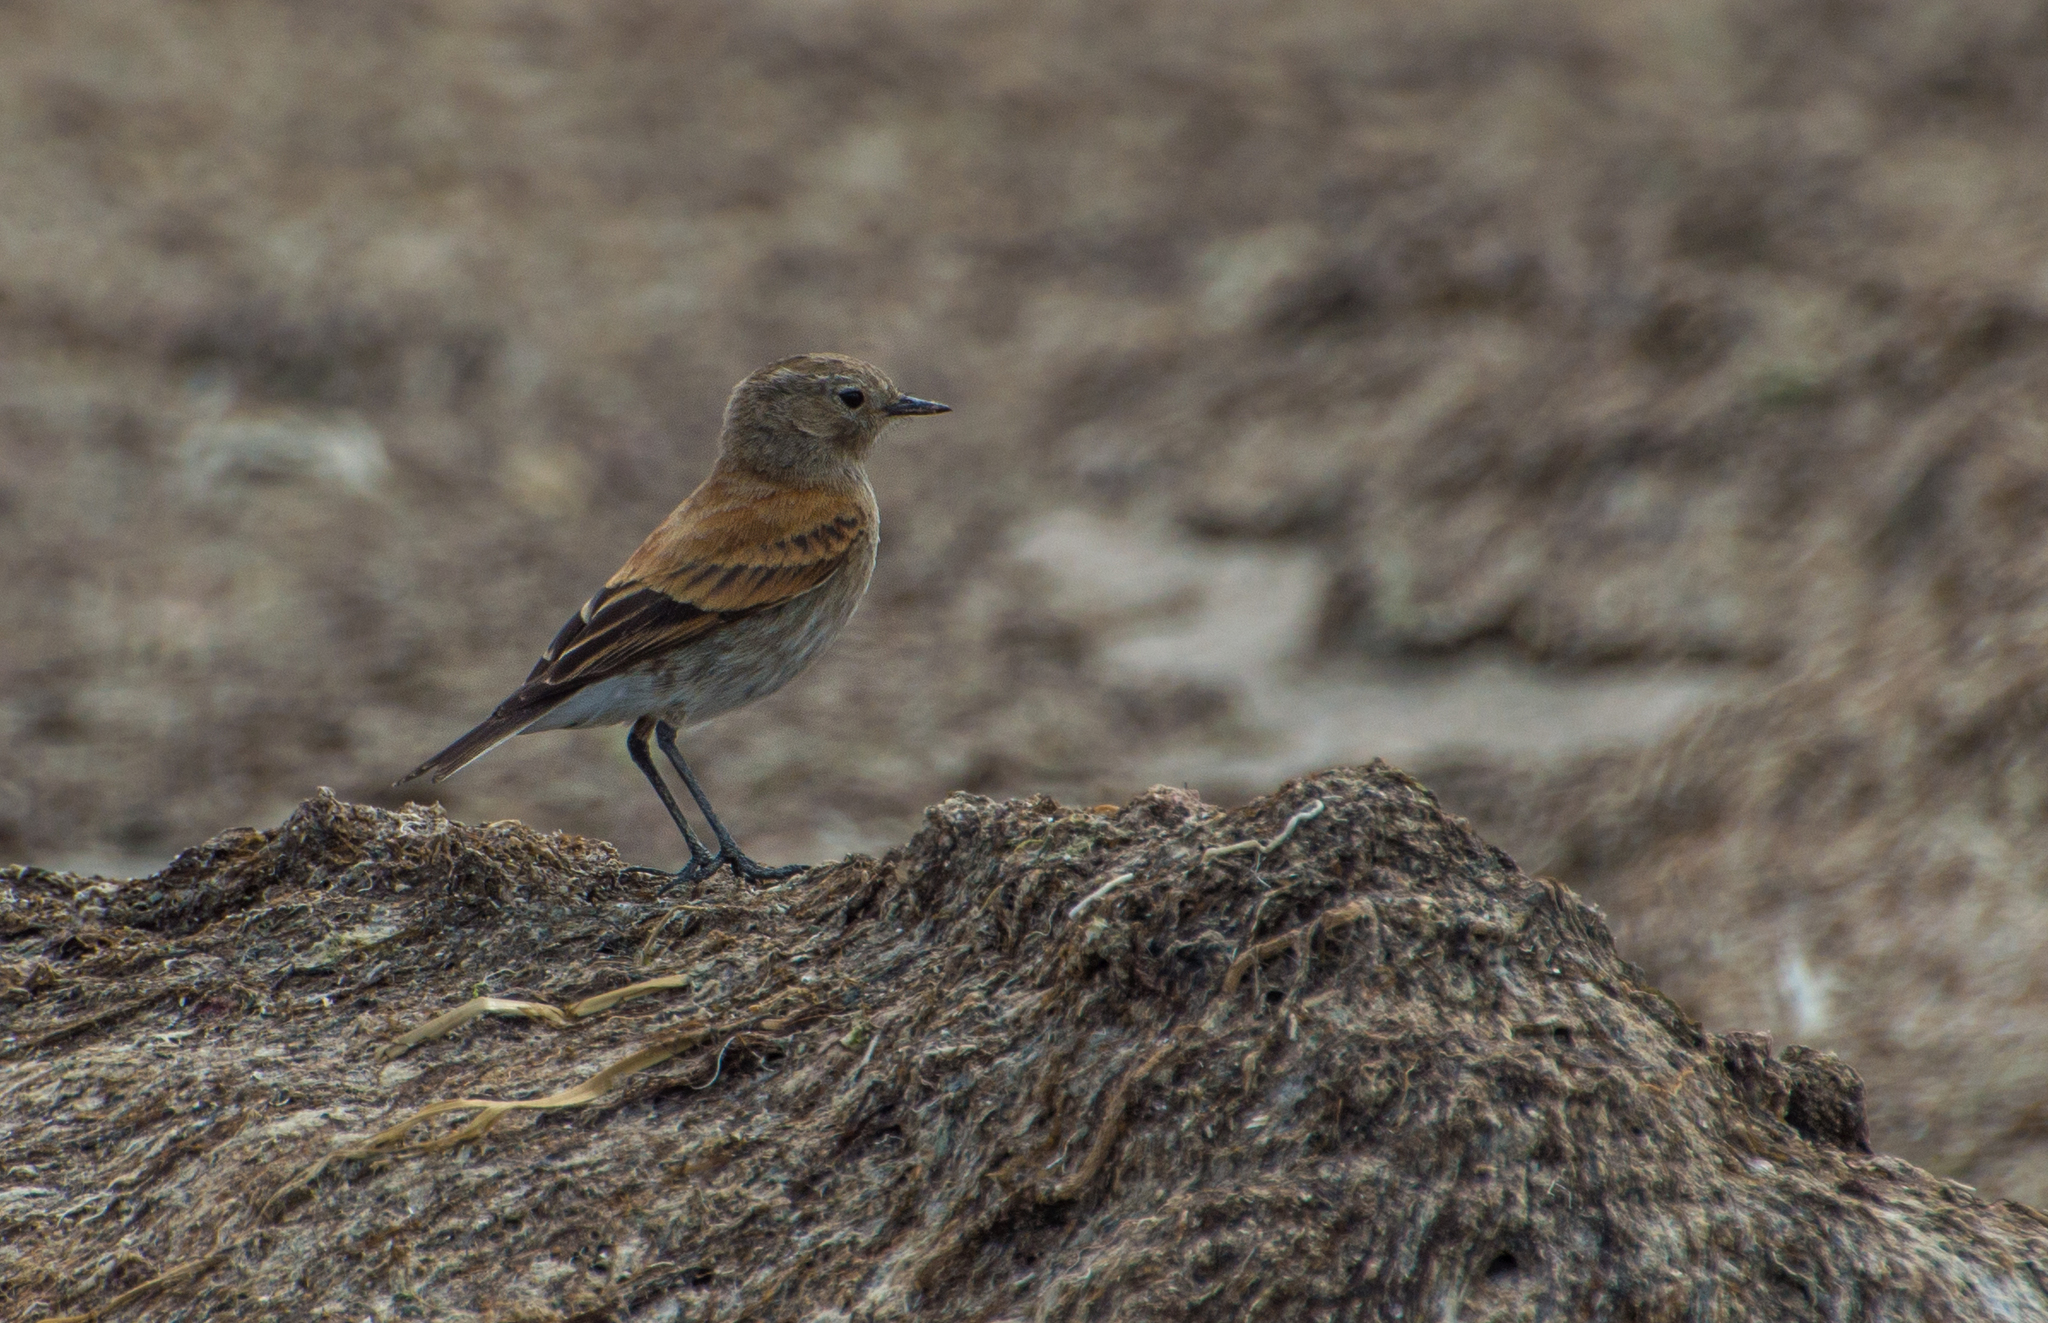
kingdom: Animalia
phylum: Chordata
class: Aves
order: Passeriformes
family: Tyrannidae
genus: Lessonia
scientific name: Lessonia rufa
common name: Austral negrito
